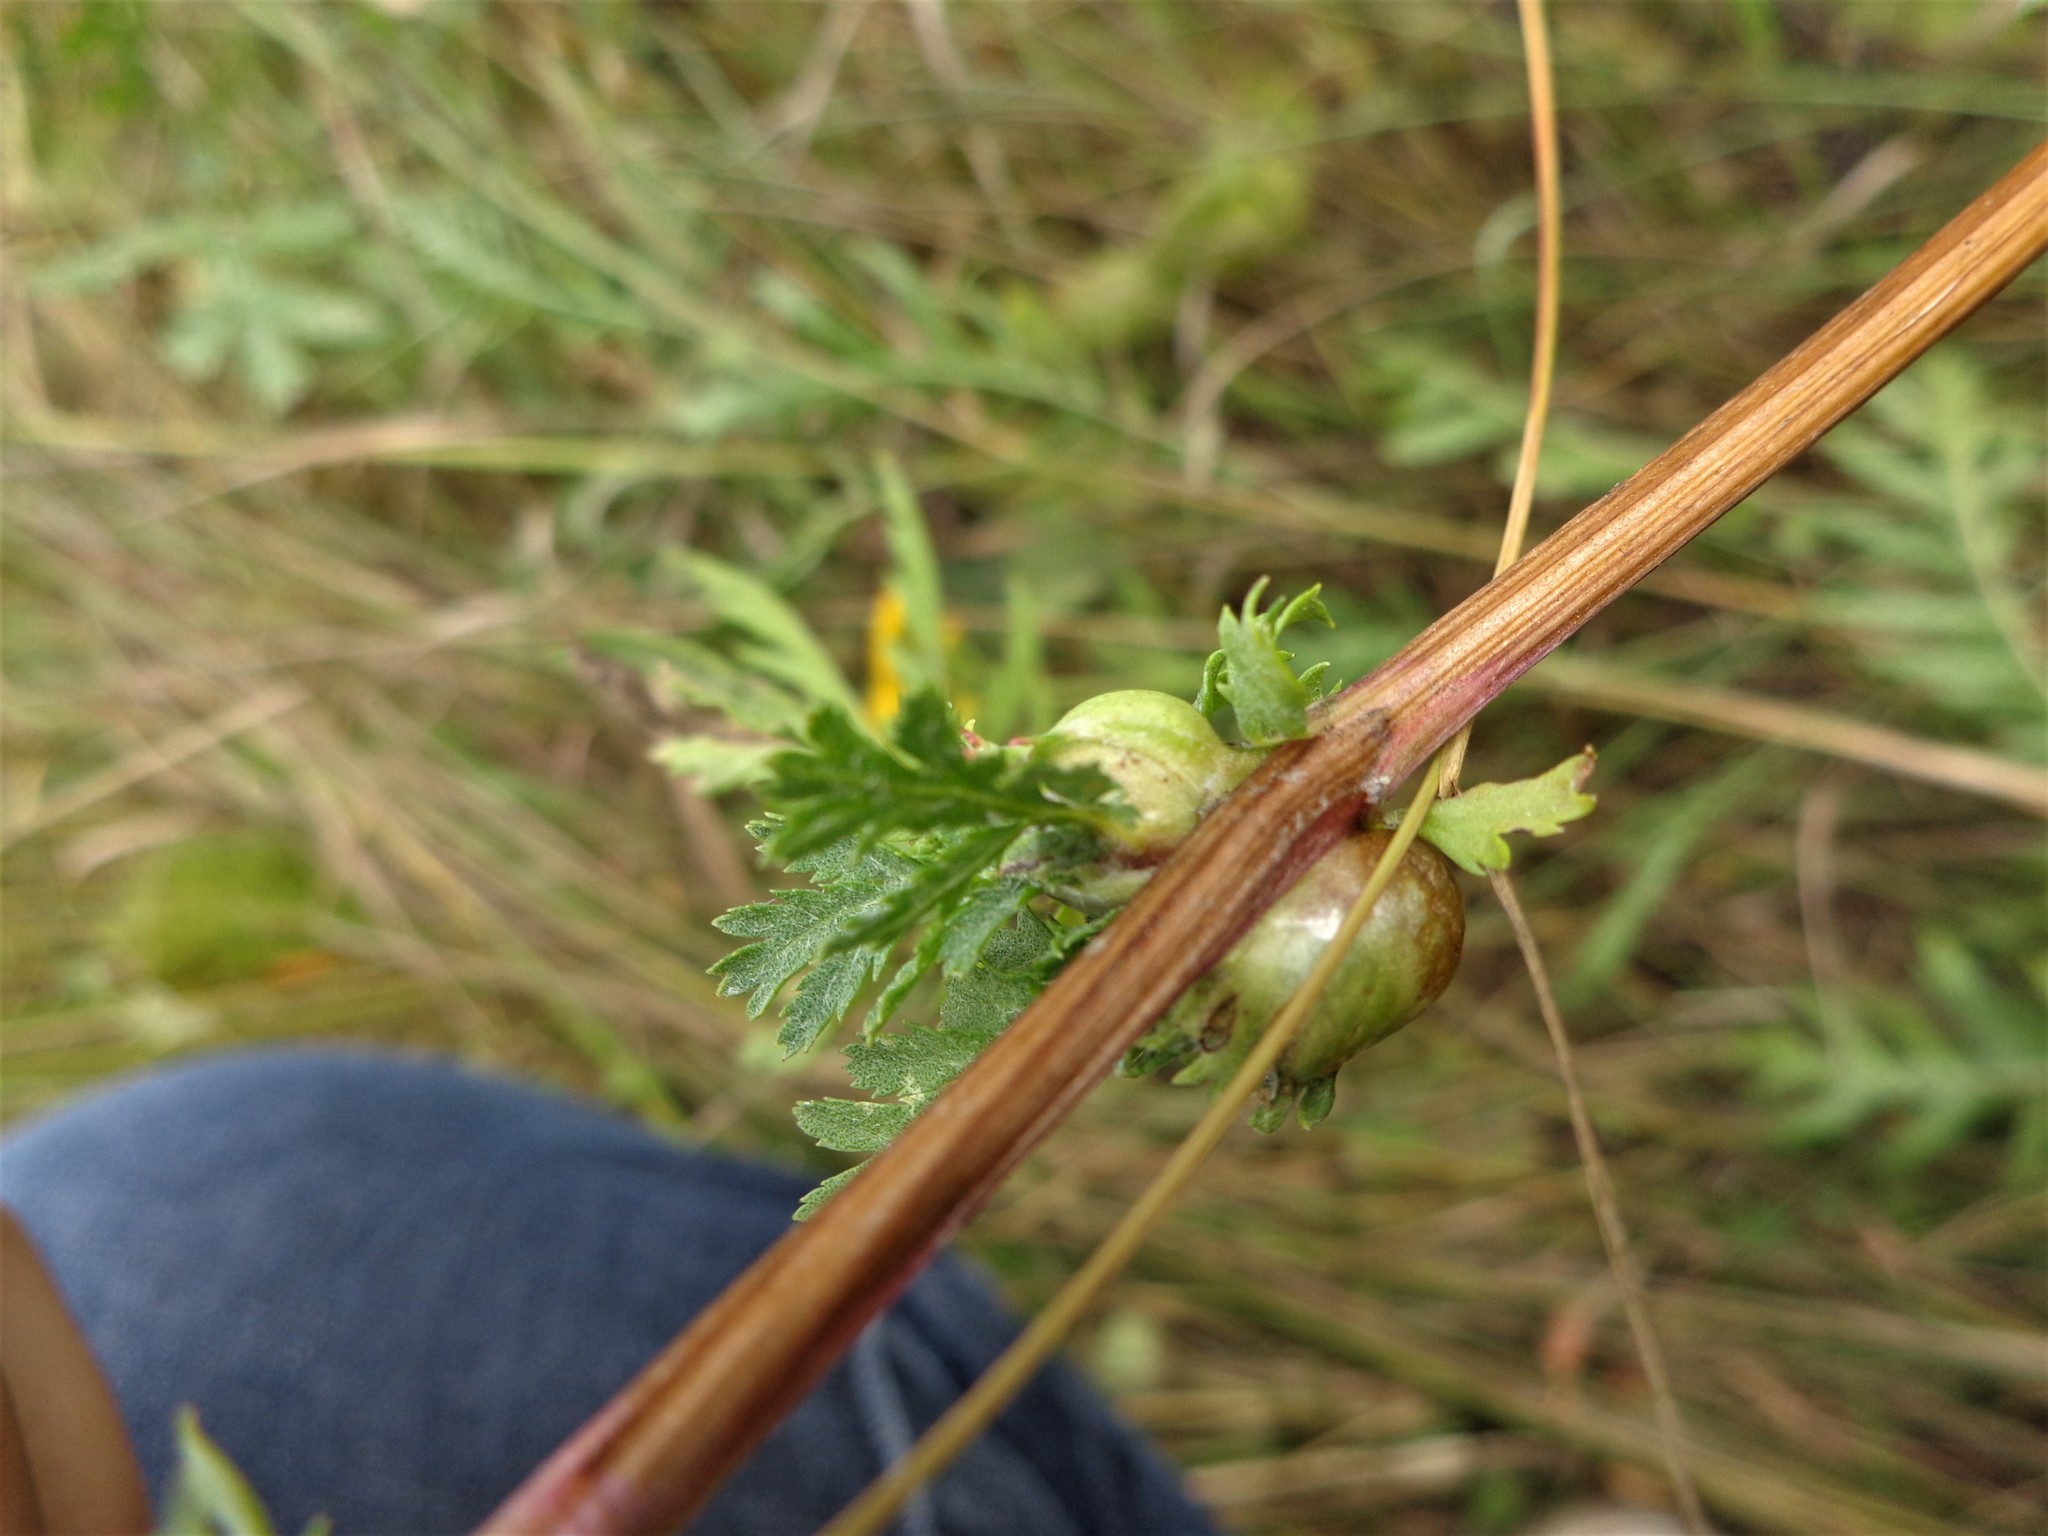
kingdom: Animalia
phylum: Arthropoda
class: Insecta
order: Diptera
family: Cecidomyiidae
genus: Rhopalomyia
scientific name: Rhopalomyia tanaceticolus
